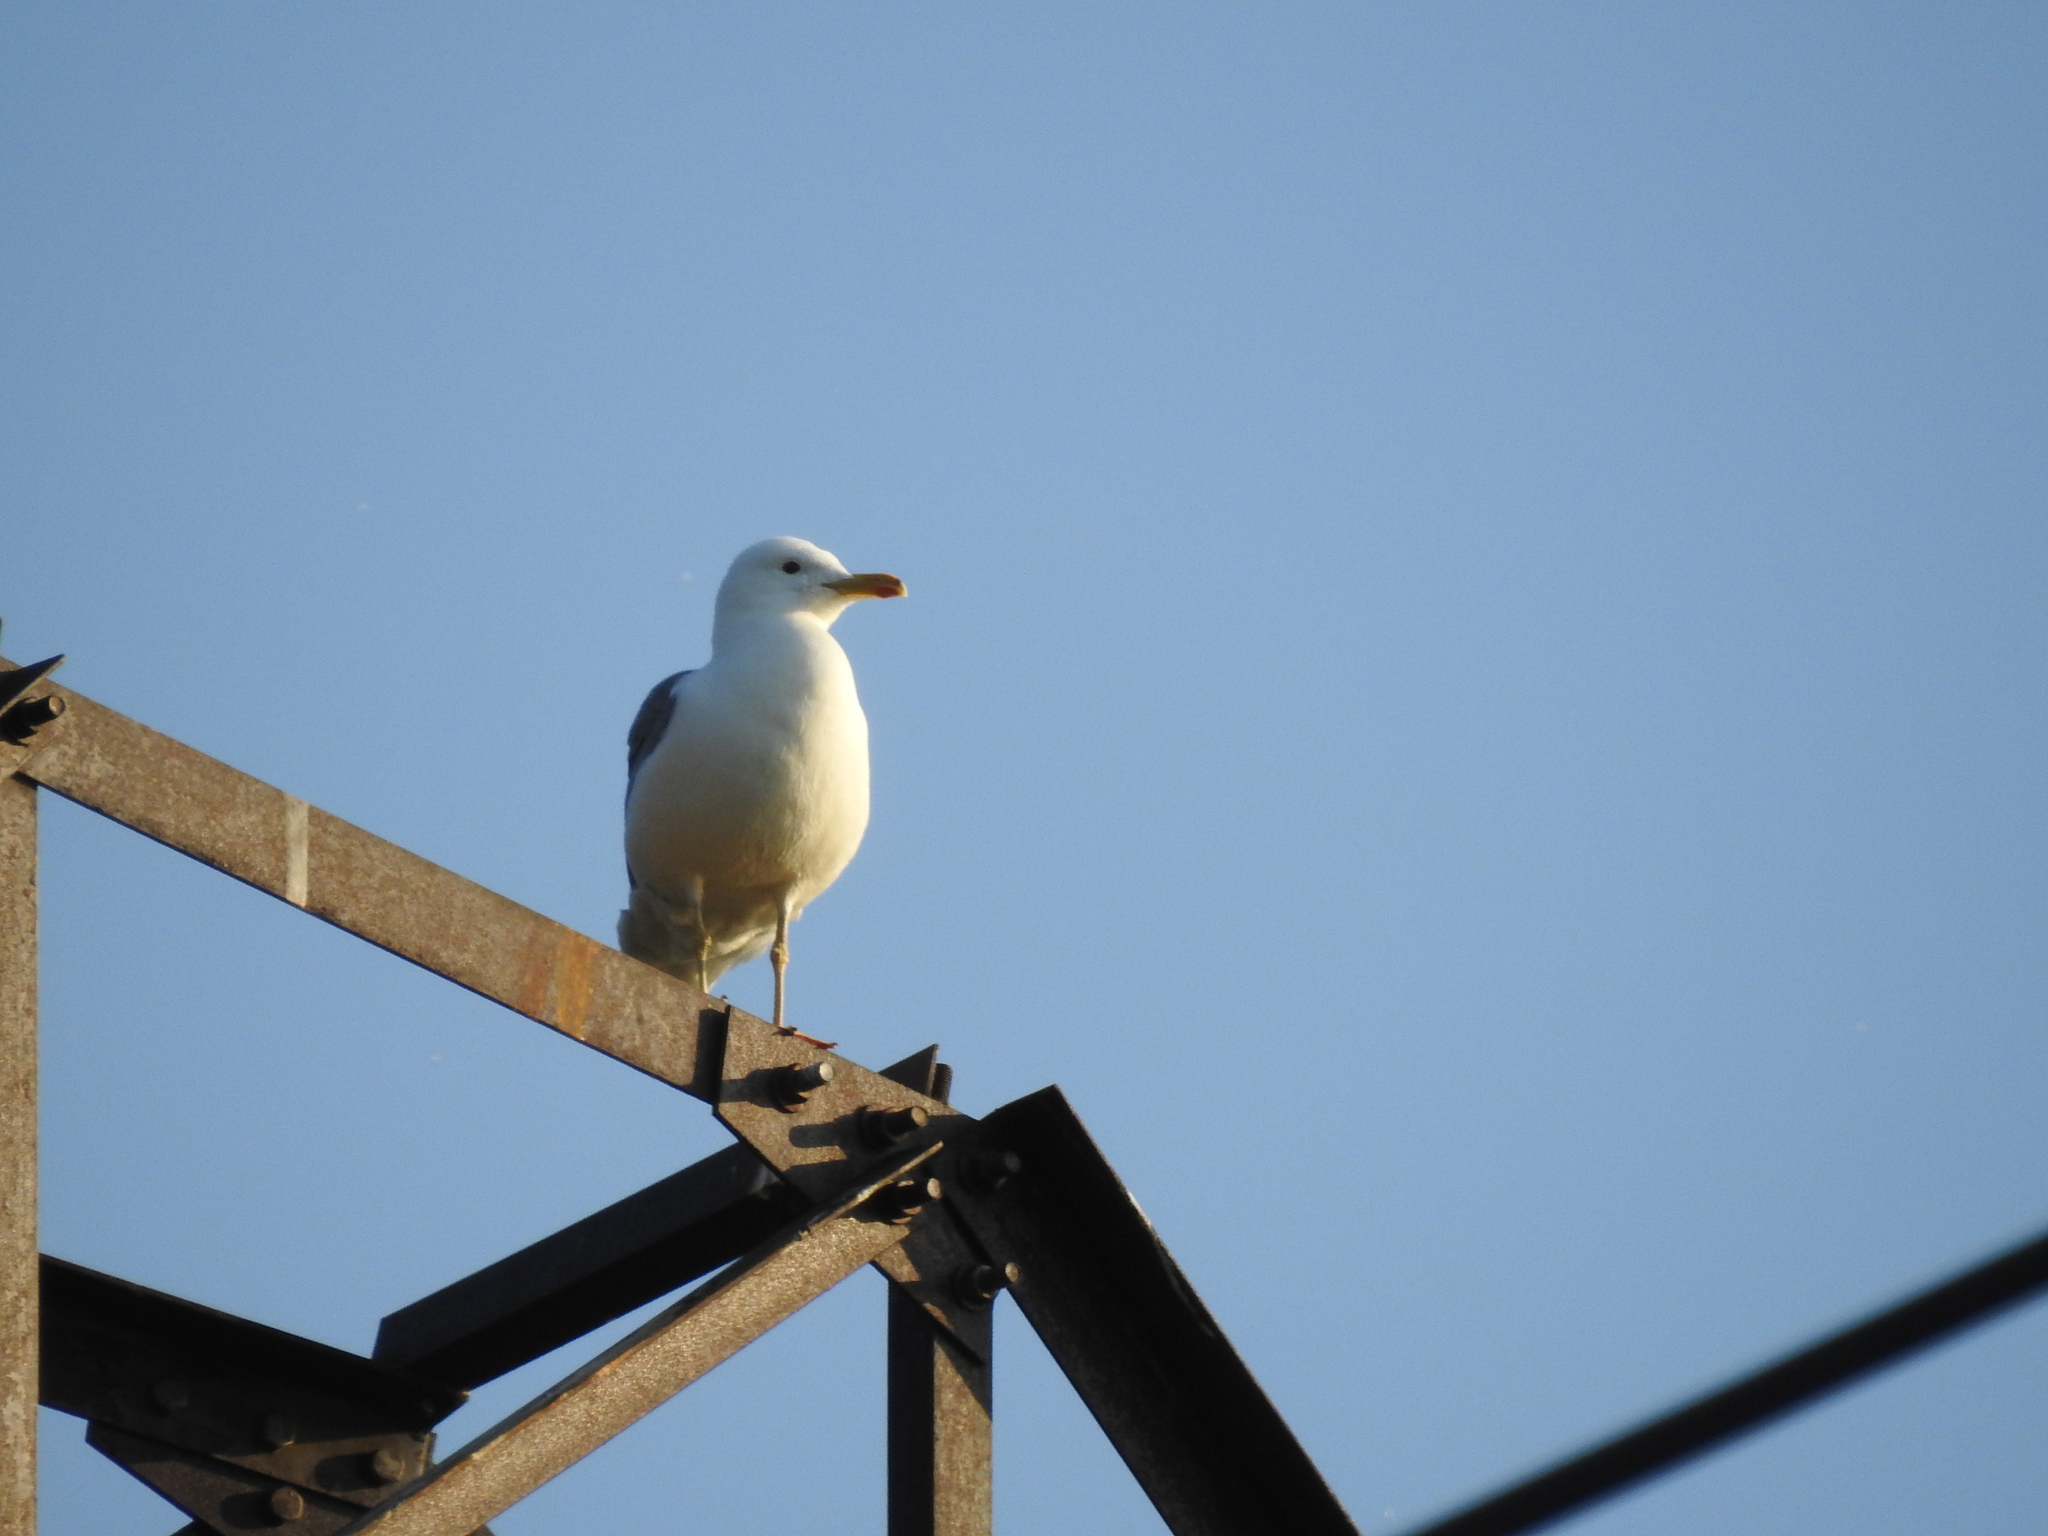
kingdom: Animalia
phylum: Chordata
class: Aves
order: Charadriiformes
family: Laridae
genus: Larus
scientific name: Larus fuscus
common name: Lesser black-backed gull
